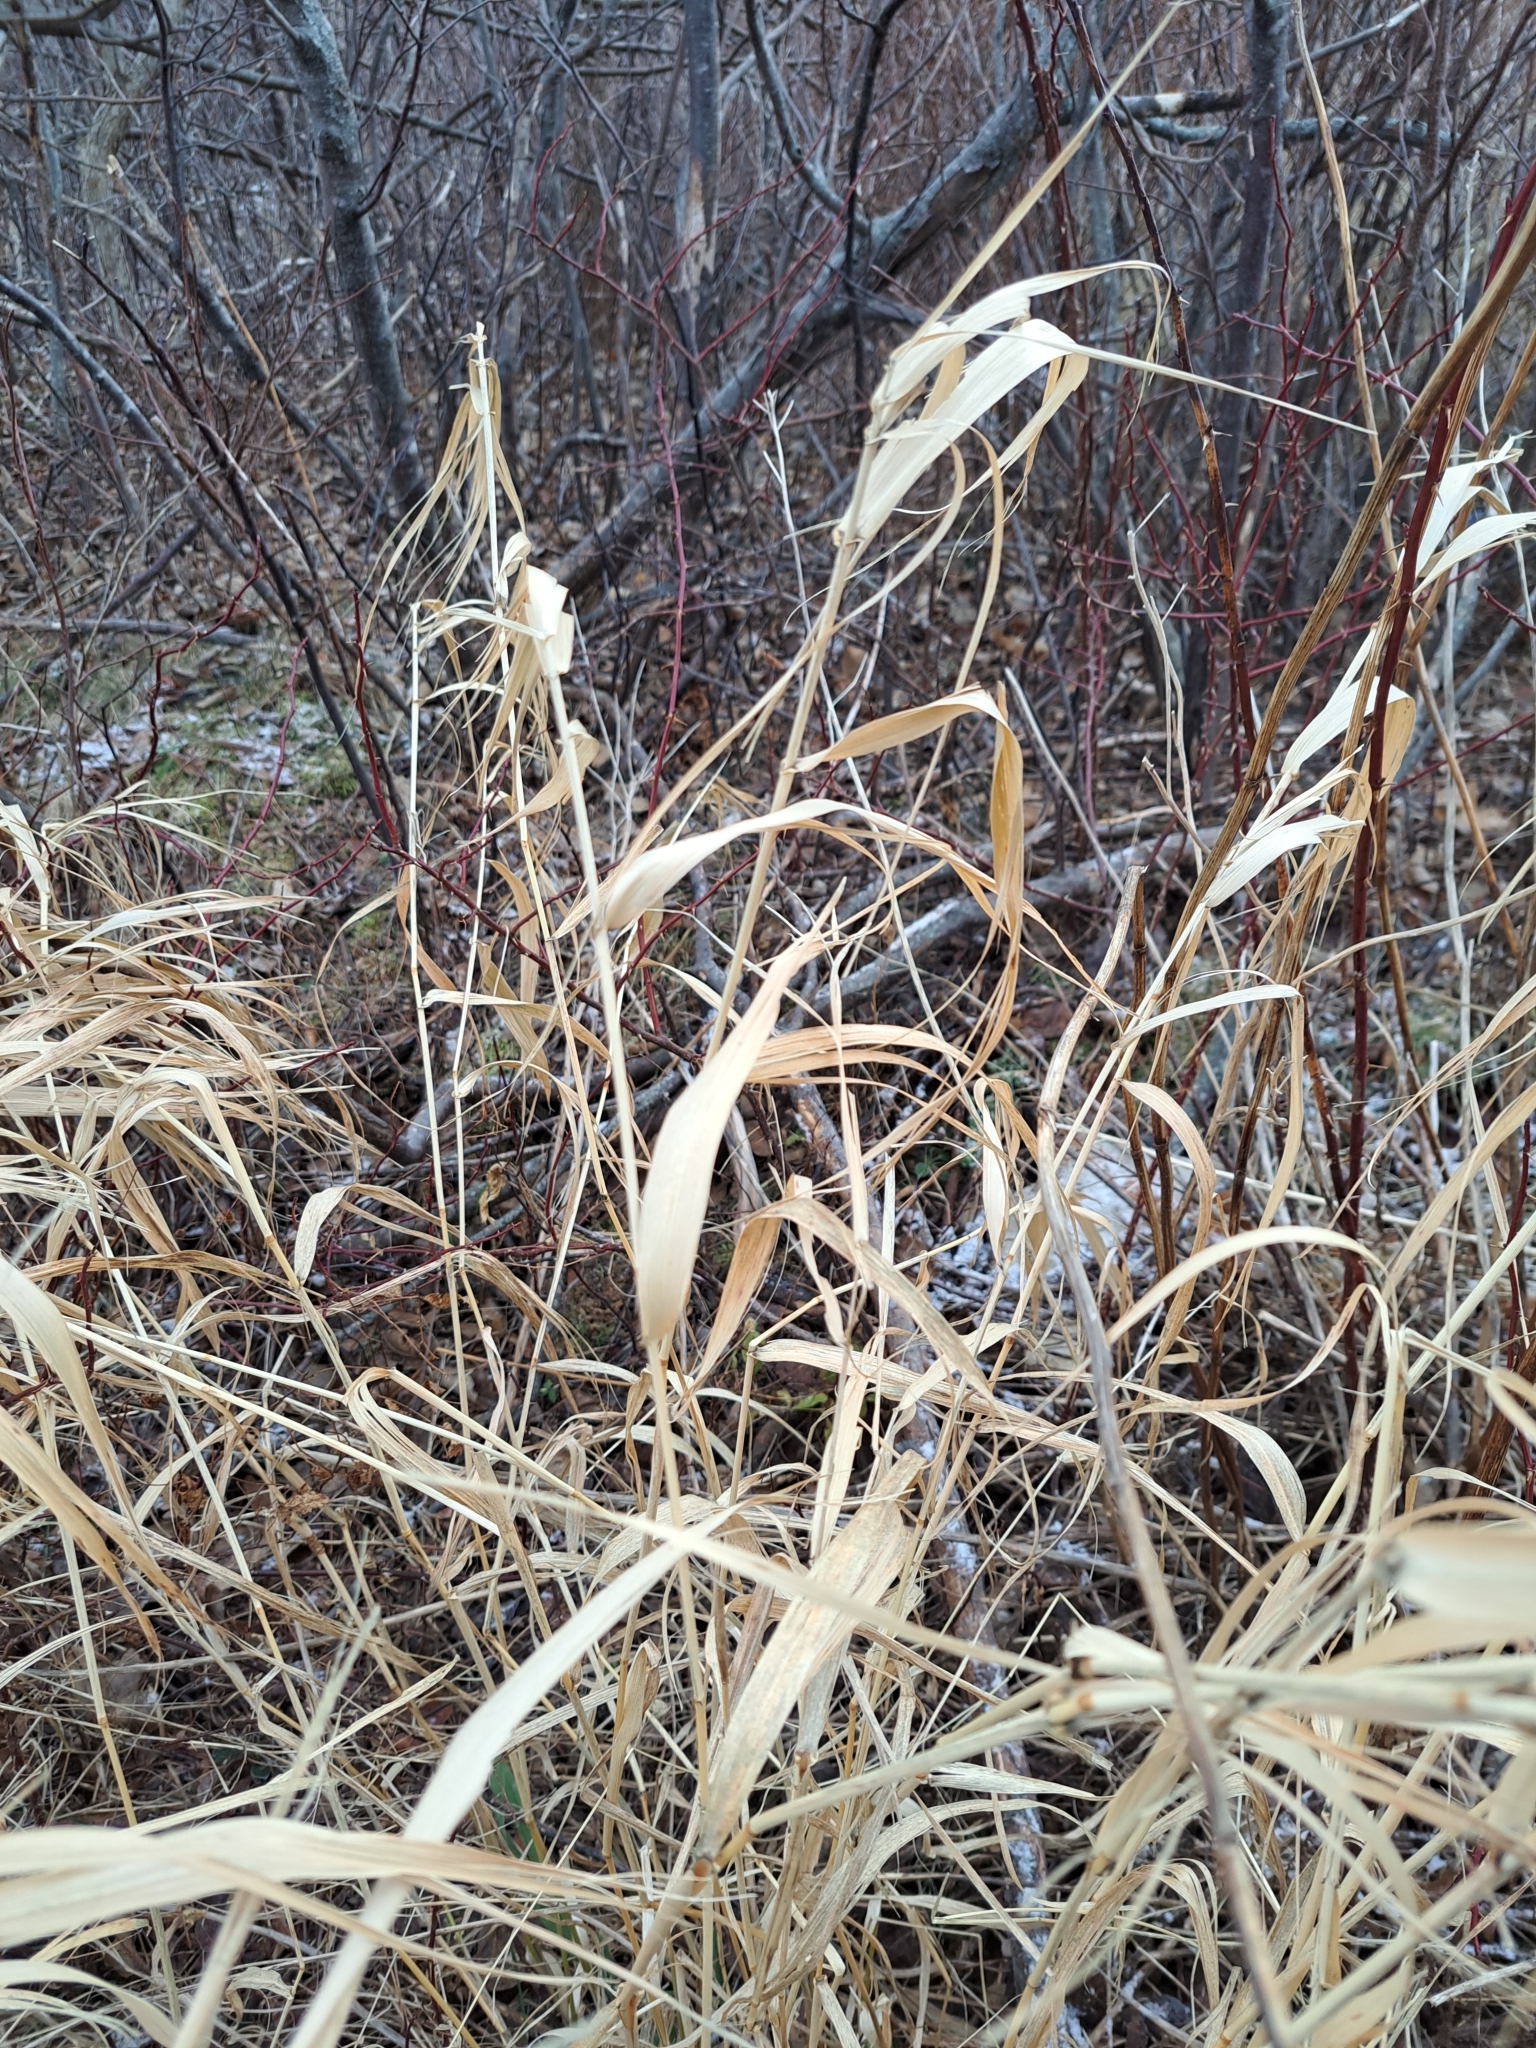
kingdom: Plantae
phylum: Tracheophyta
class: Liliopsida
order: Poales
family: Poaceae
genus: Phalaris
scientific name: Phalaris arundinacea
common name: Reed canary-grass
